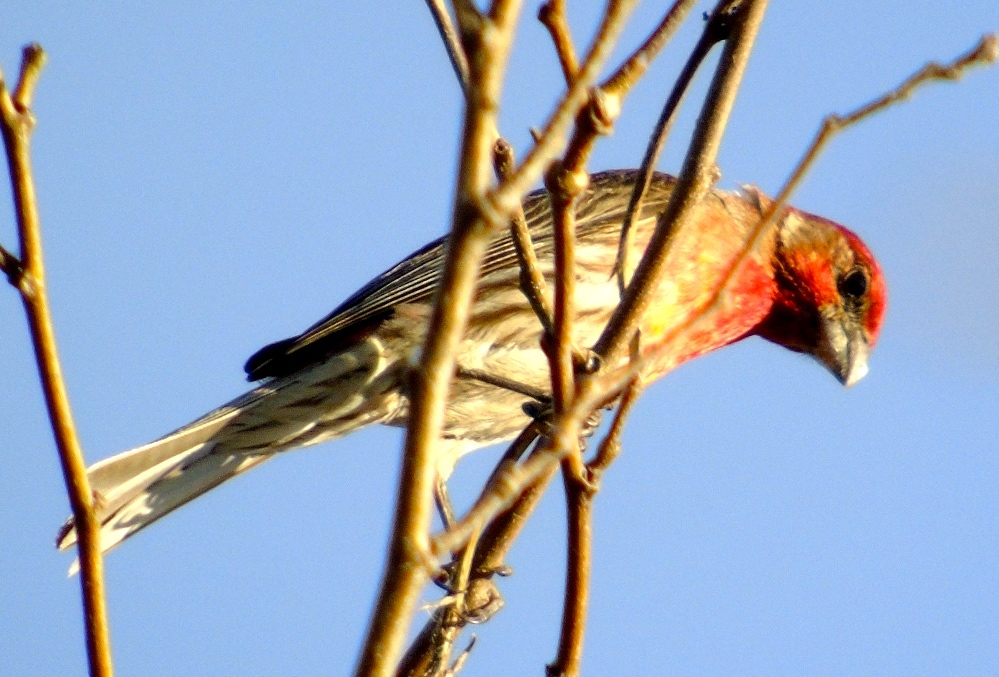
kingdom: Animalia
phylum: Chordata
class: Aves
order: Passeriformes
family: Fringillidae
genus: Haemorhous
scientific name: Haemorhous mexicanus
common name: House finch
